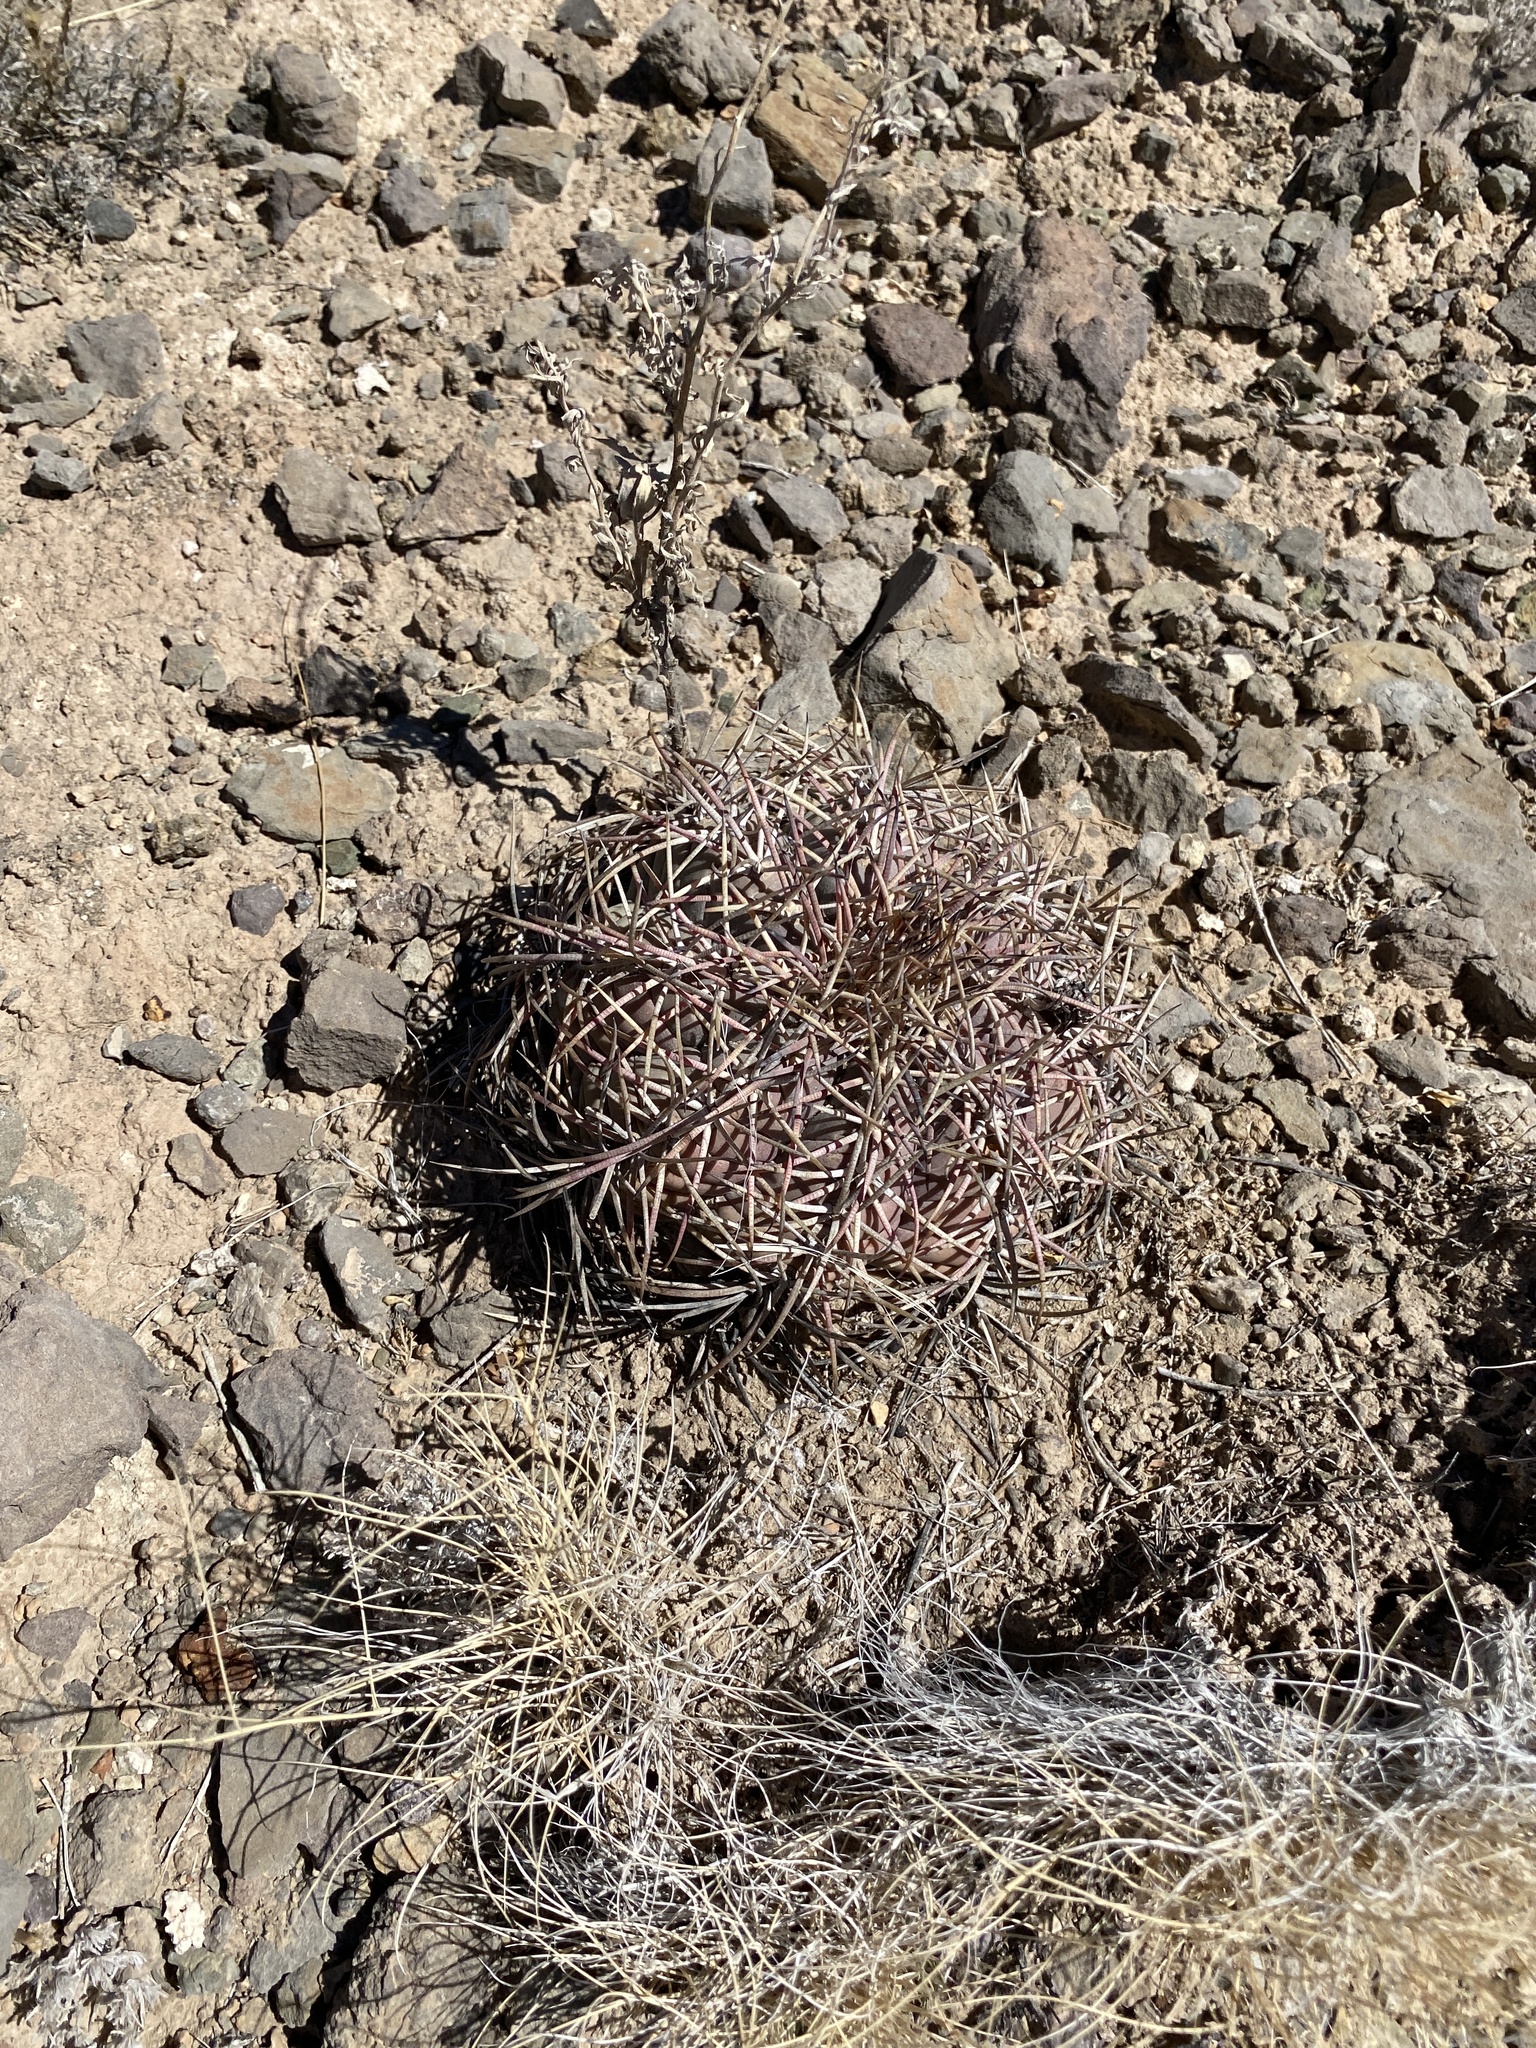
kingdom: Plantae
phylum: Tracheophyta
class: Magnoliopsida
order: Caryophyllales
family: Cactaceae
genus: Echinocactus
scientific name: Echinocactus horizonthalonius
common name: Devilshead
